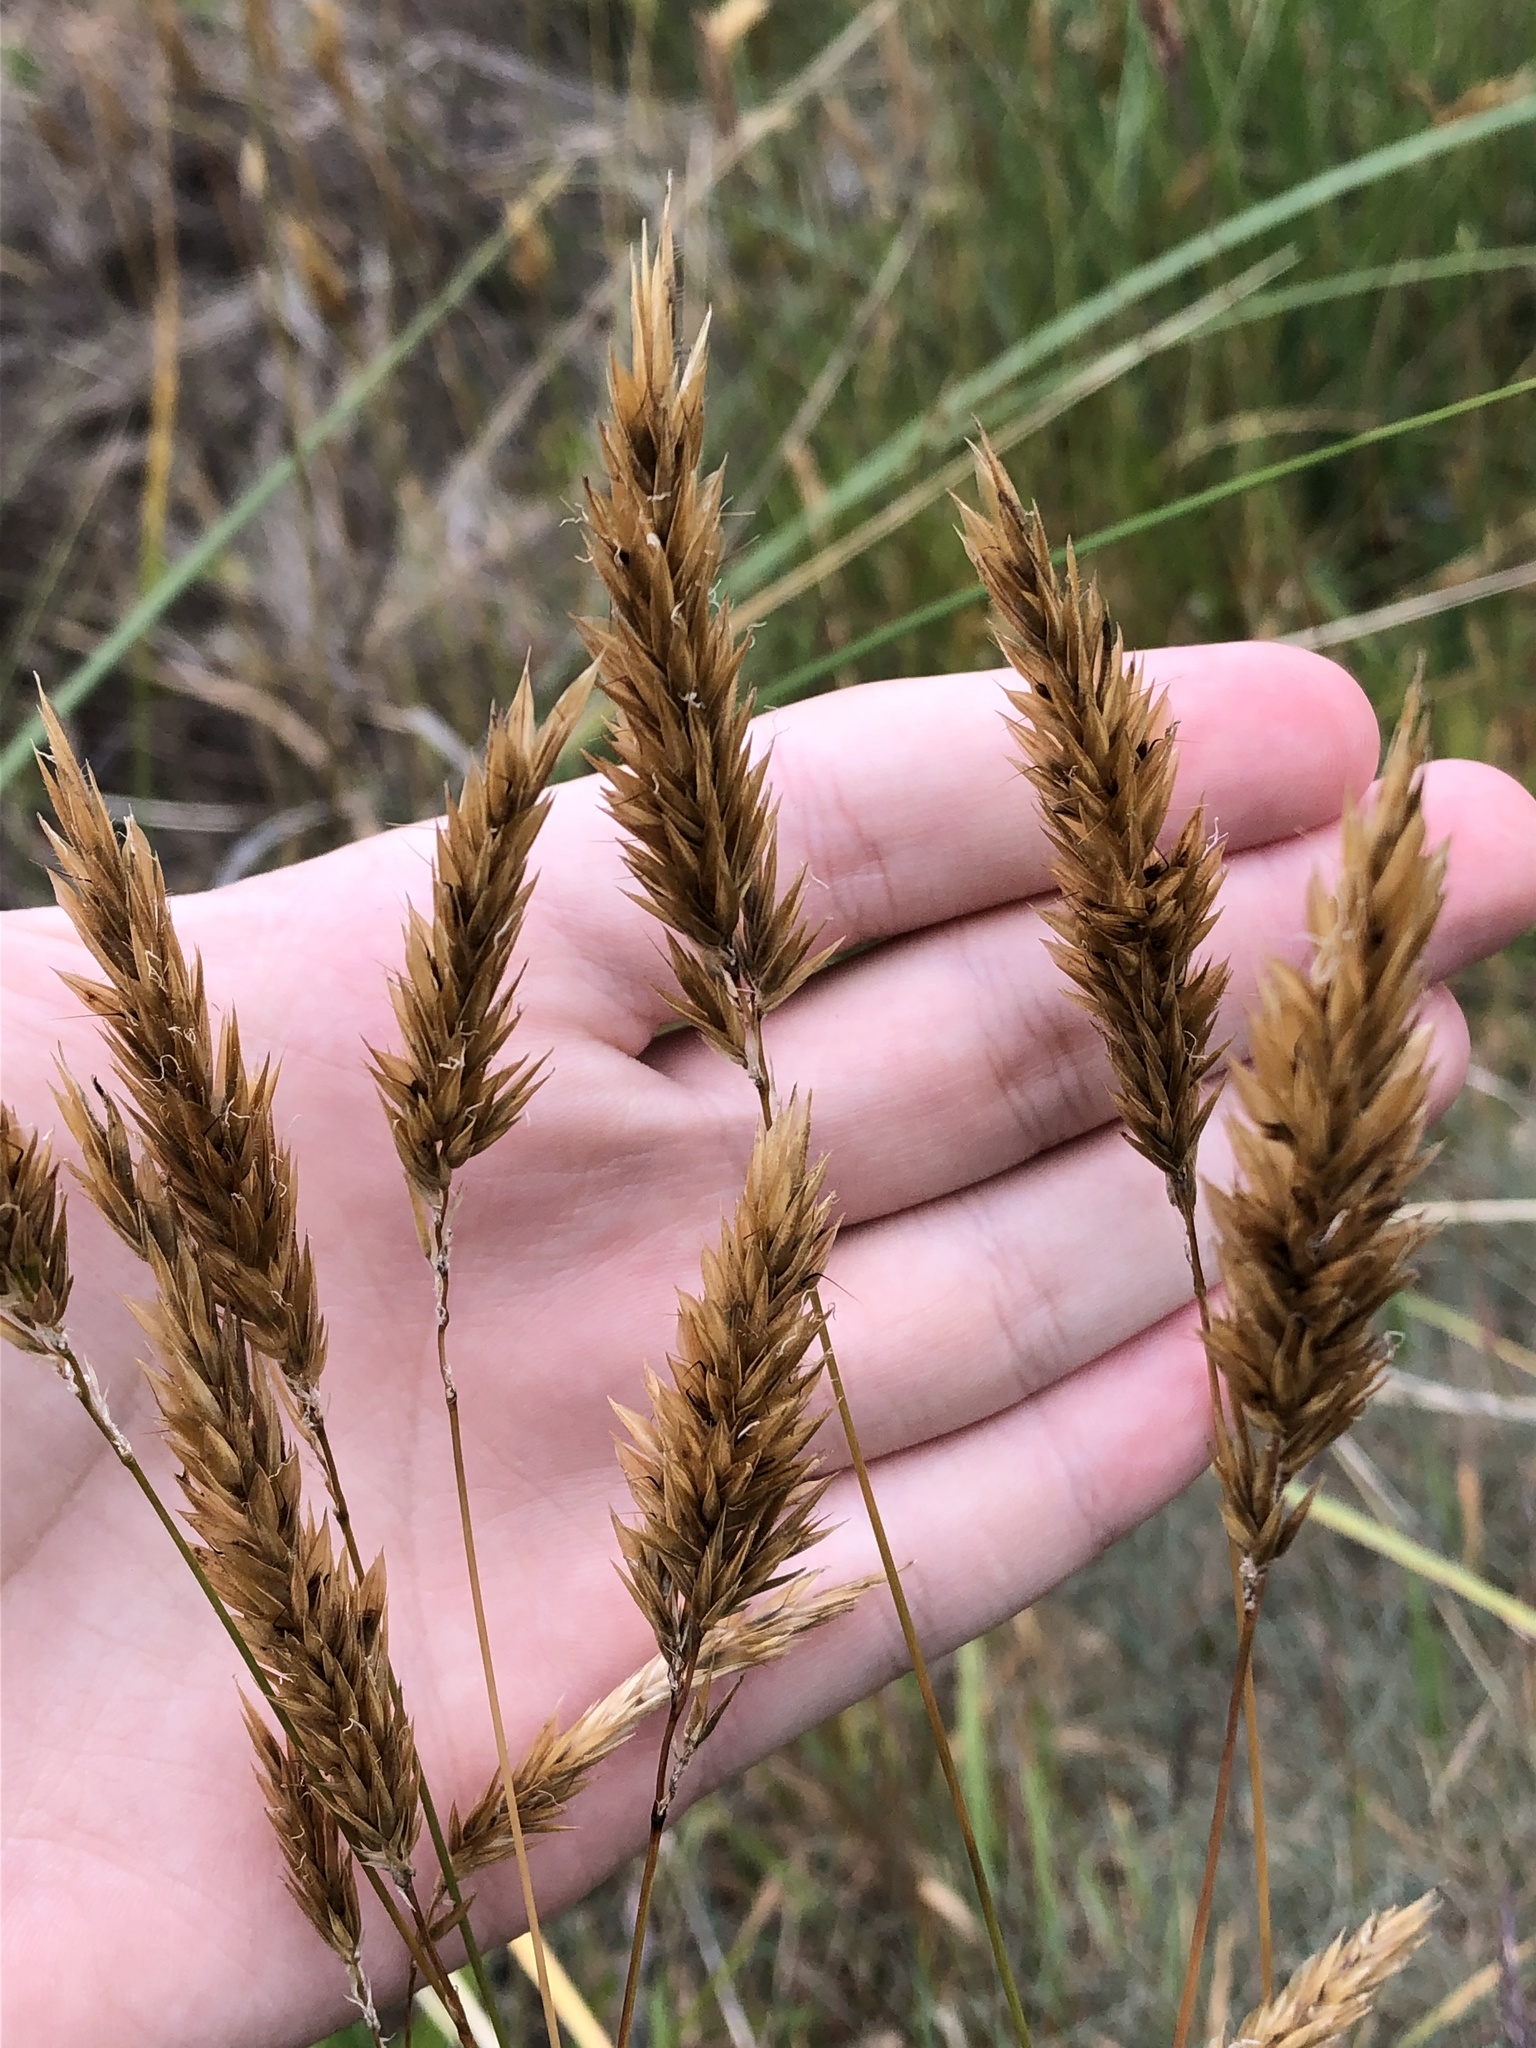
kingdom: Plantae
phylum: Tracheophyta
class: Liliopsida
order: Poales
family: Poaceae
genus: Anthoxanthum
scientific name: Anthoxanthum odoratum
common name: Sweet vernalgrass
